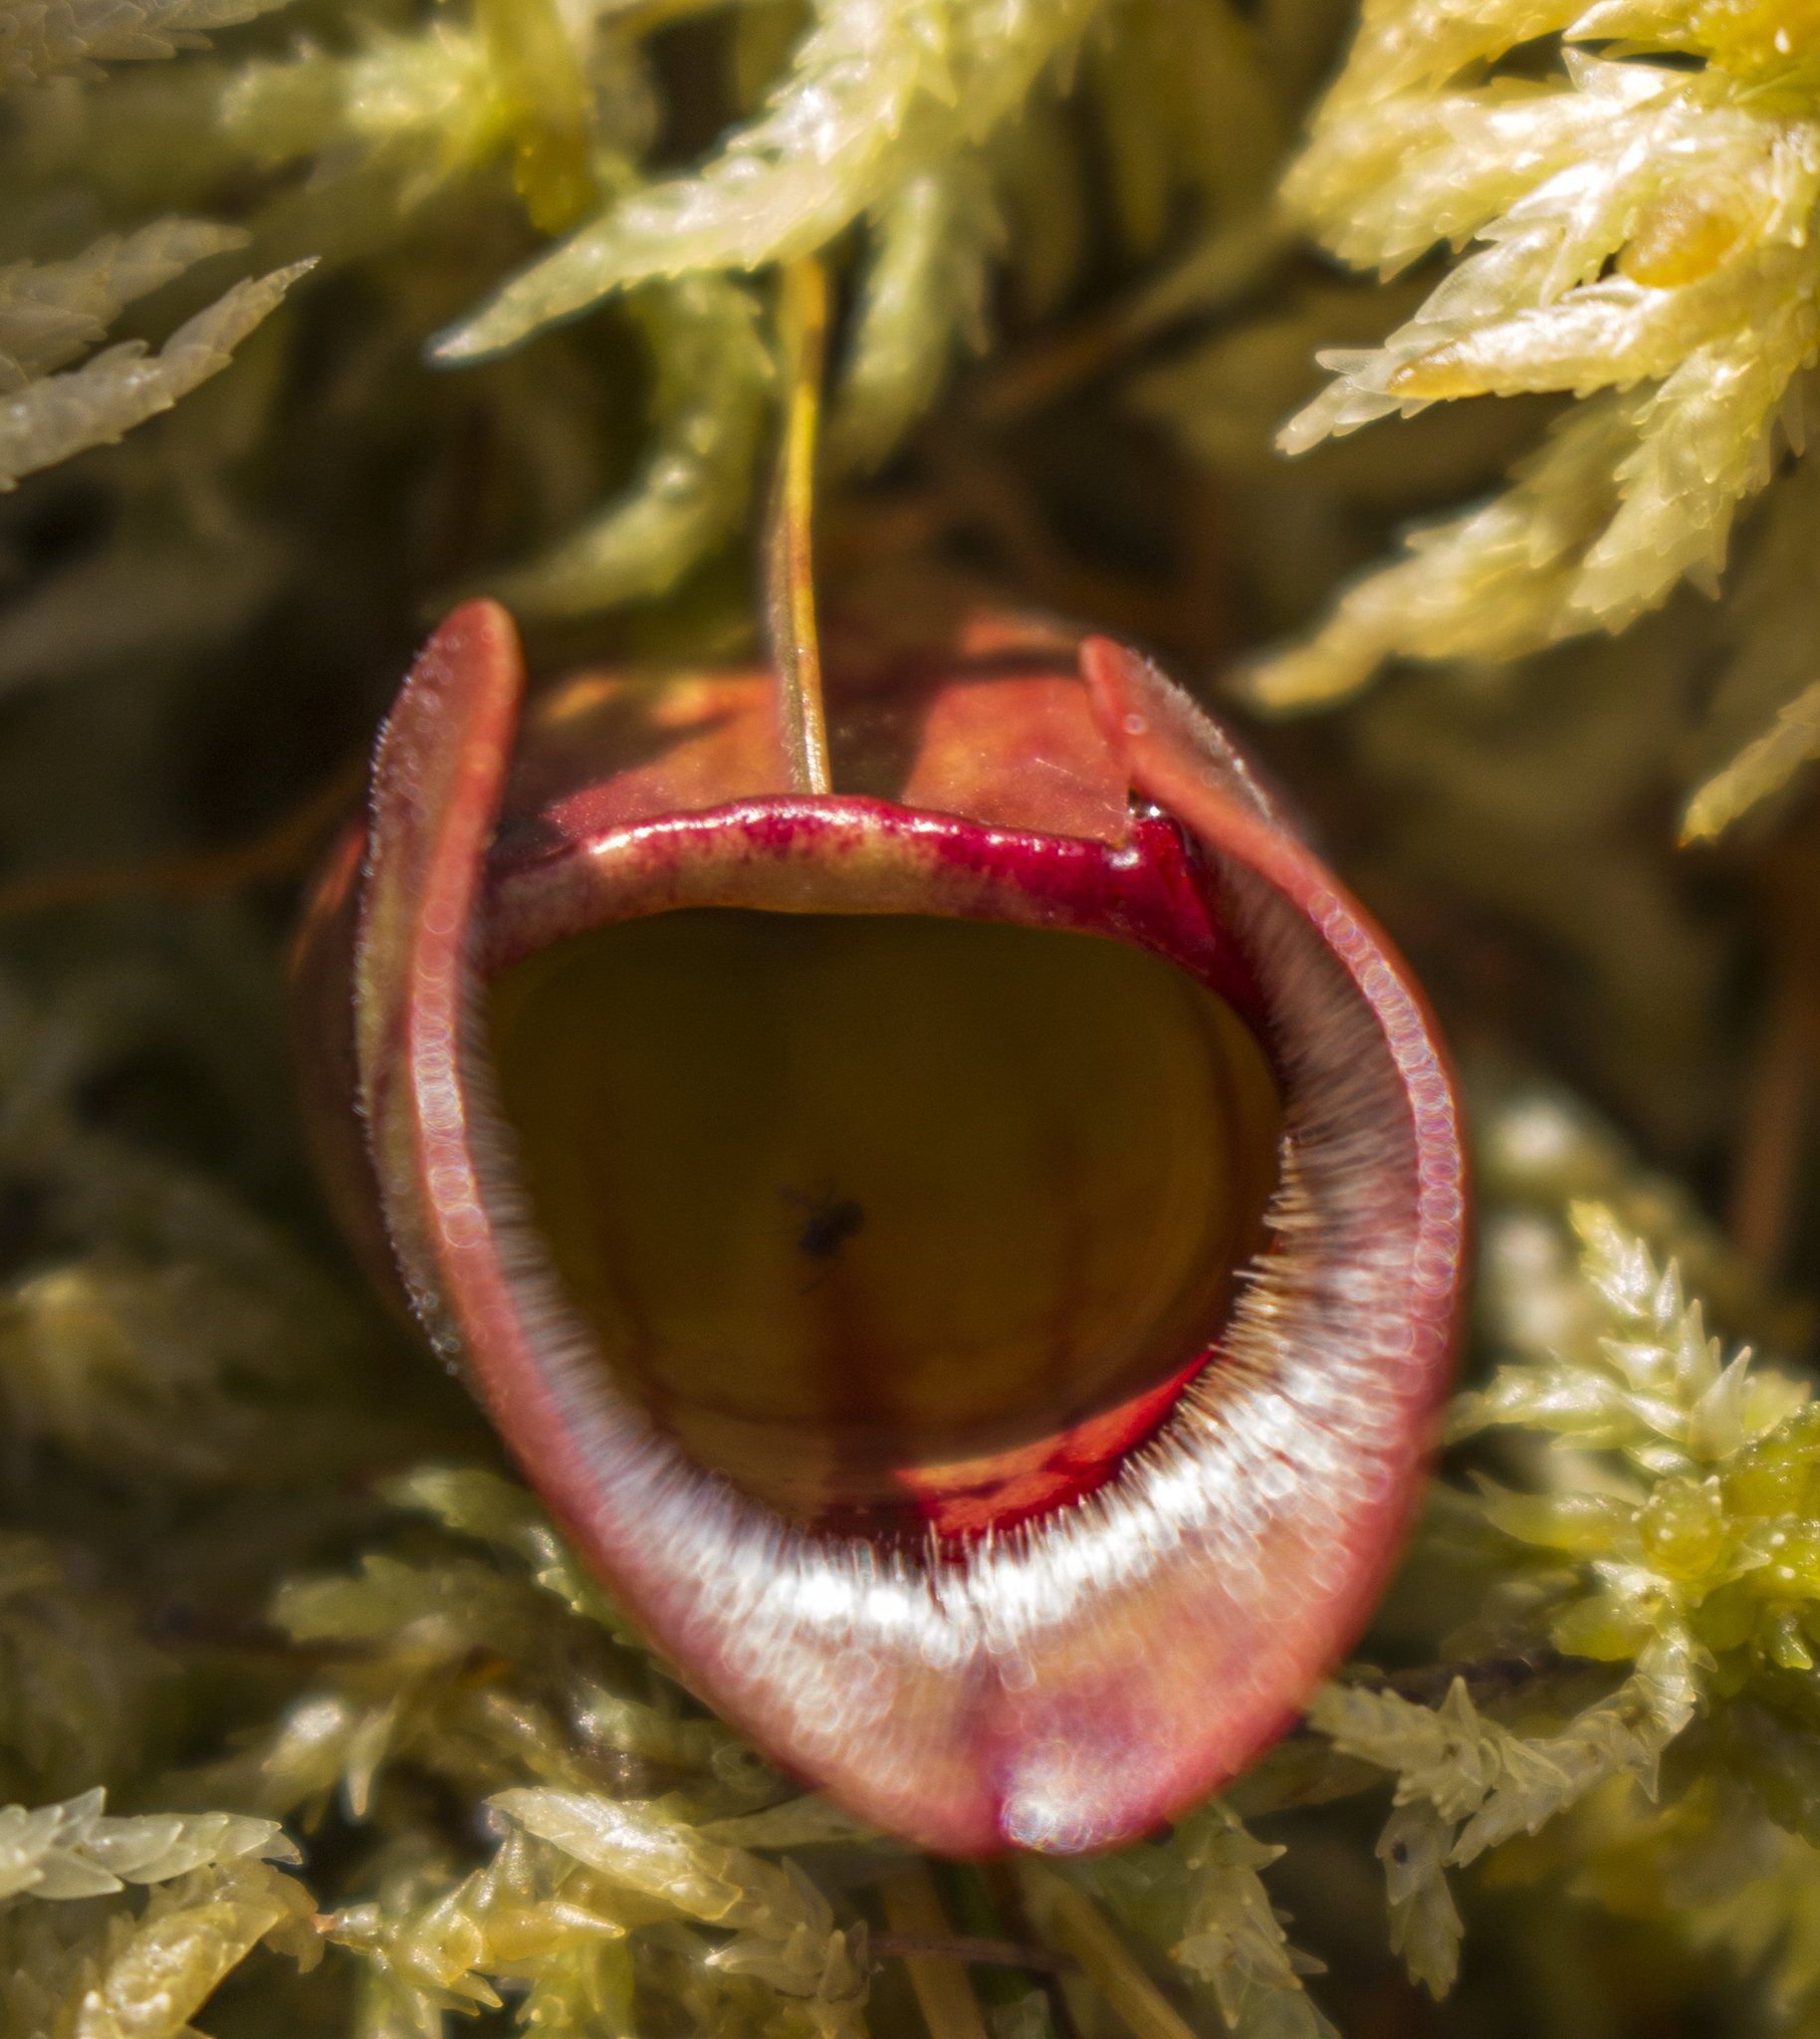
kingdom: Plantae
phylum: Tracheophyta
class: Magnoliopsida
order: Ericales
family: Sarraceniaceae
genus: Sarracenia
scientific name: Sarracenia purpurea
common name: Pitcherplant
